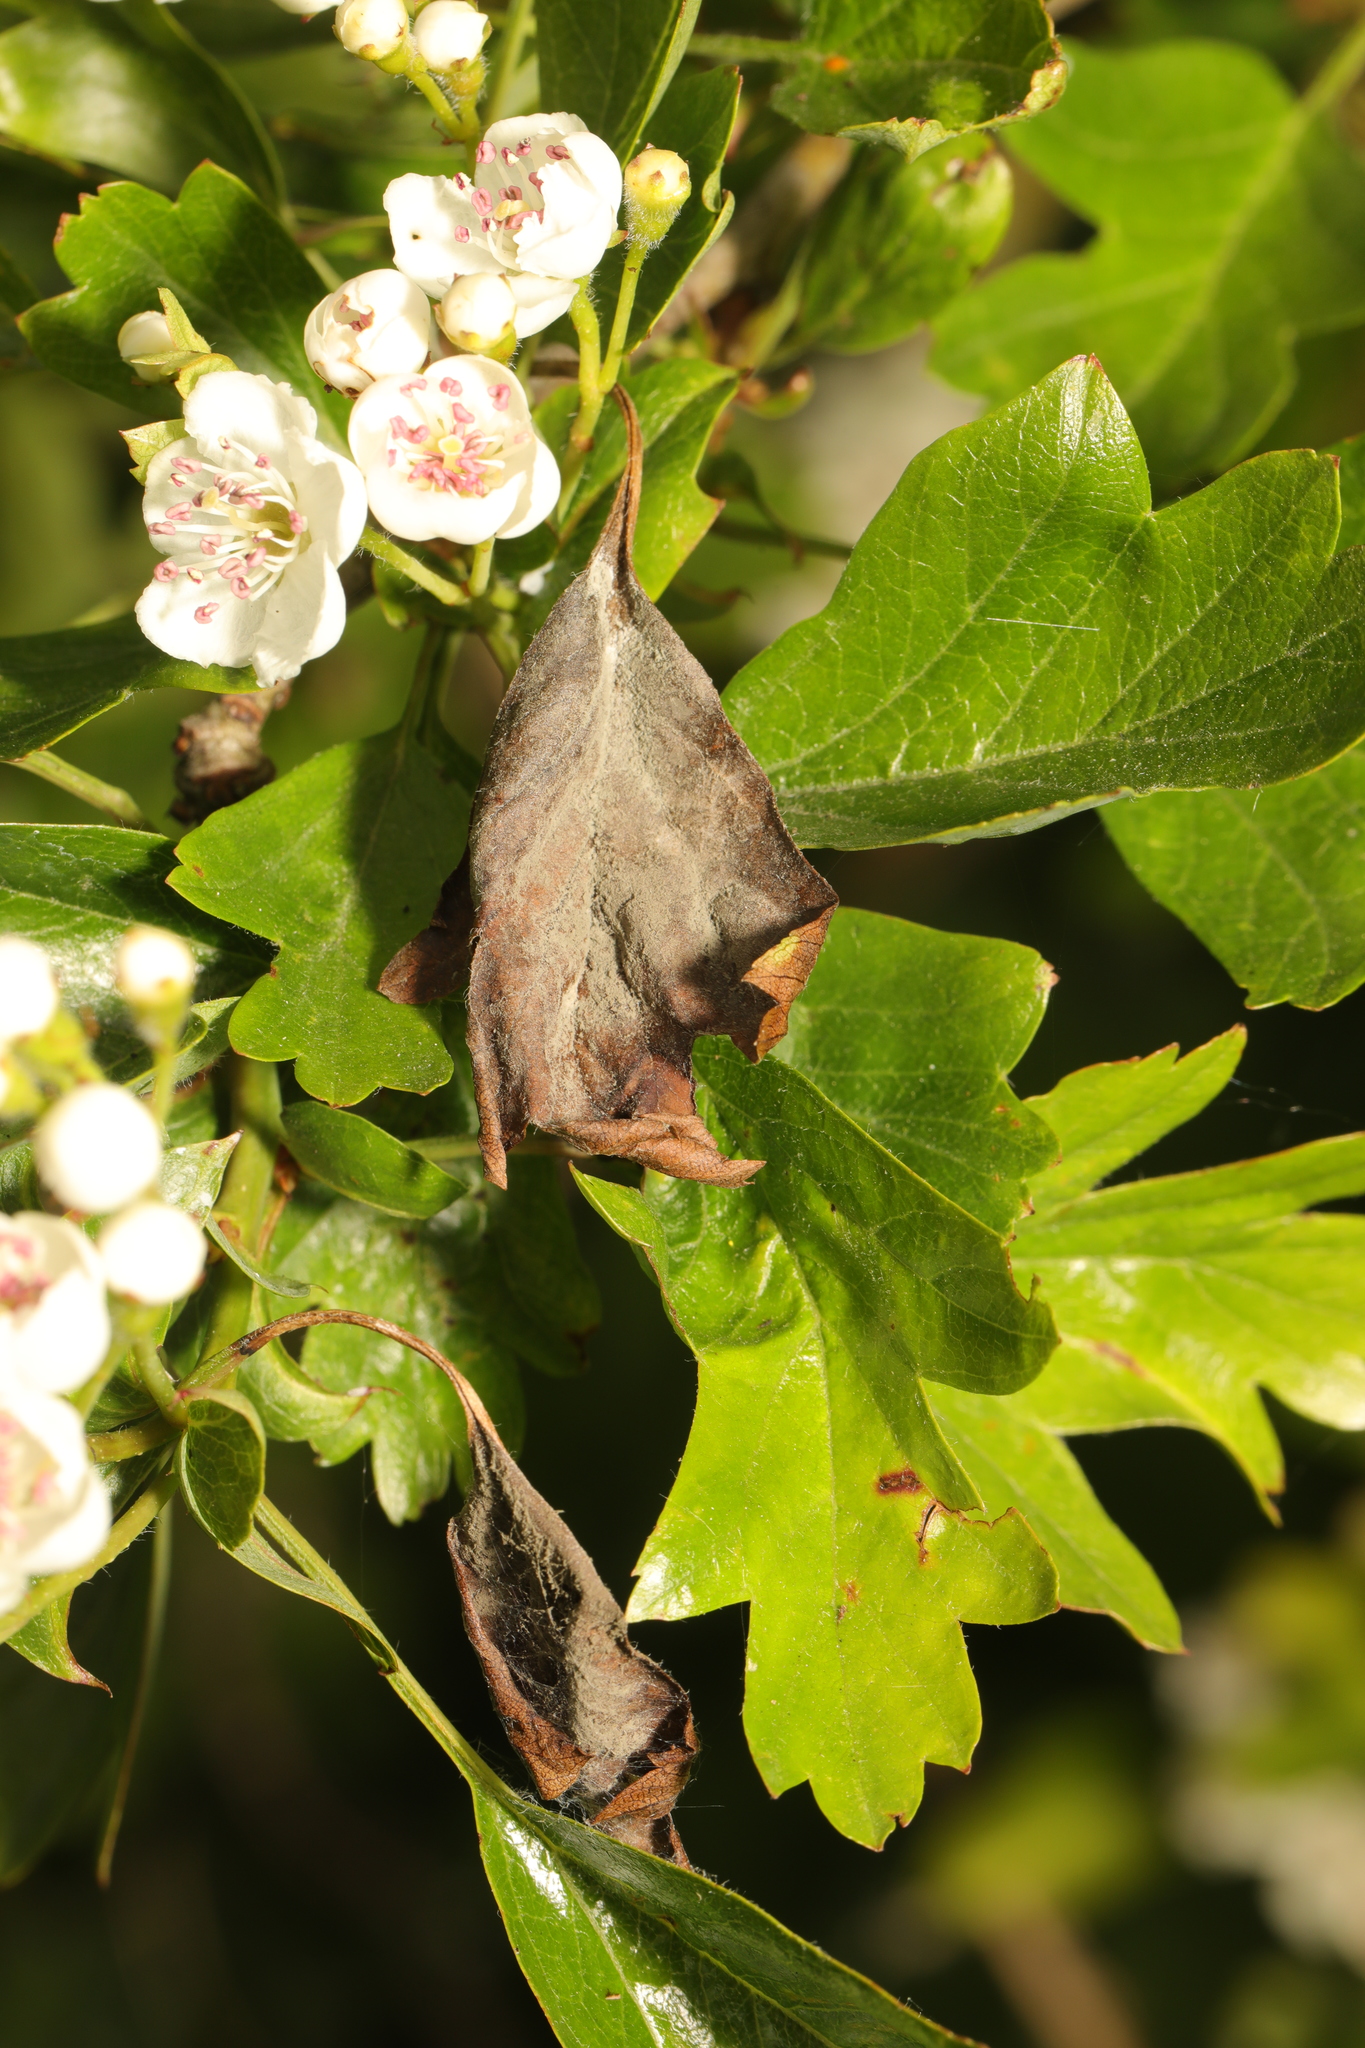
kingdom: Fungi
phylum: Ascomycota
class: Leotiomycetes
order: Helotiales
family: Sclerotiniaceae
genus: Monilinia
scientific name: Monilinia johnsonii
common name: Haw goblet
